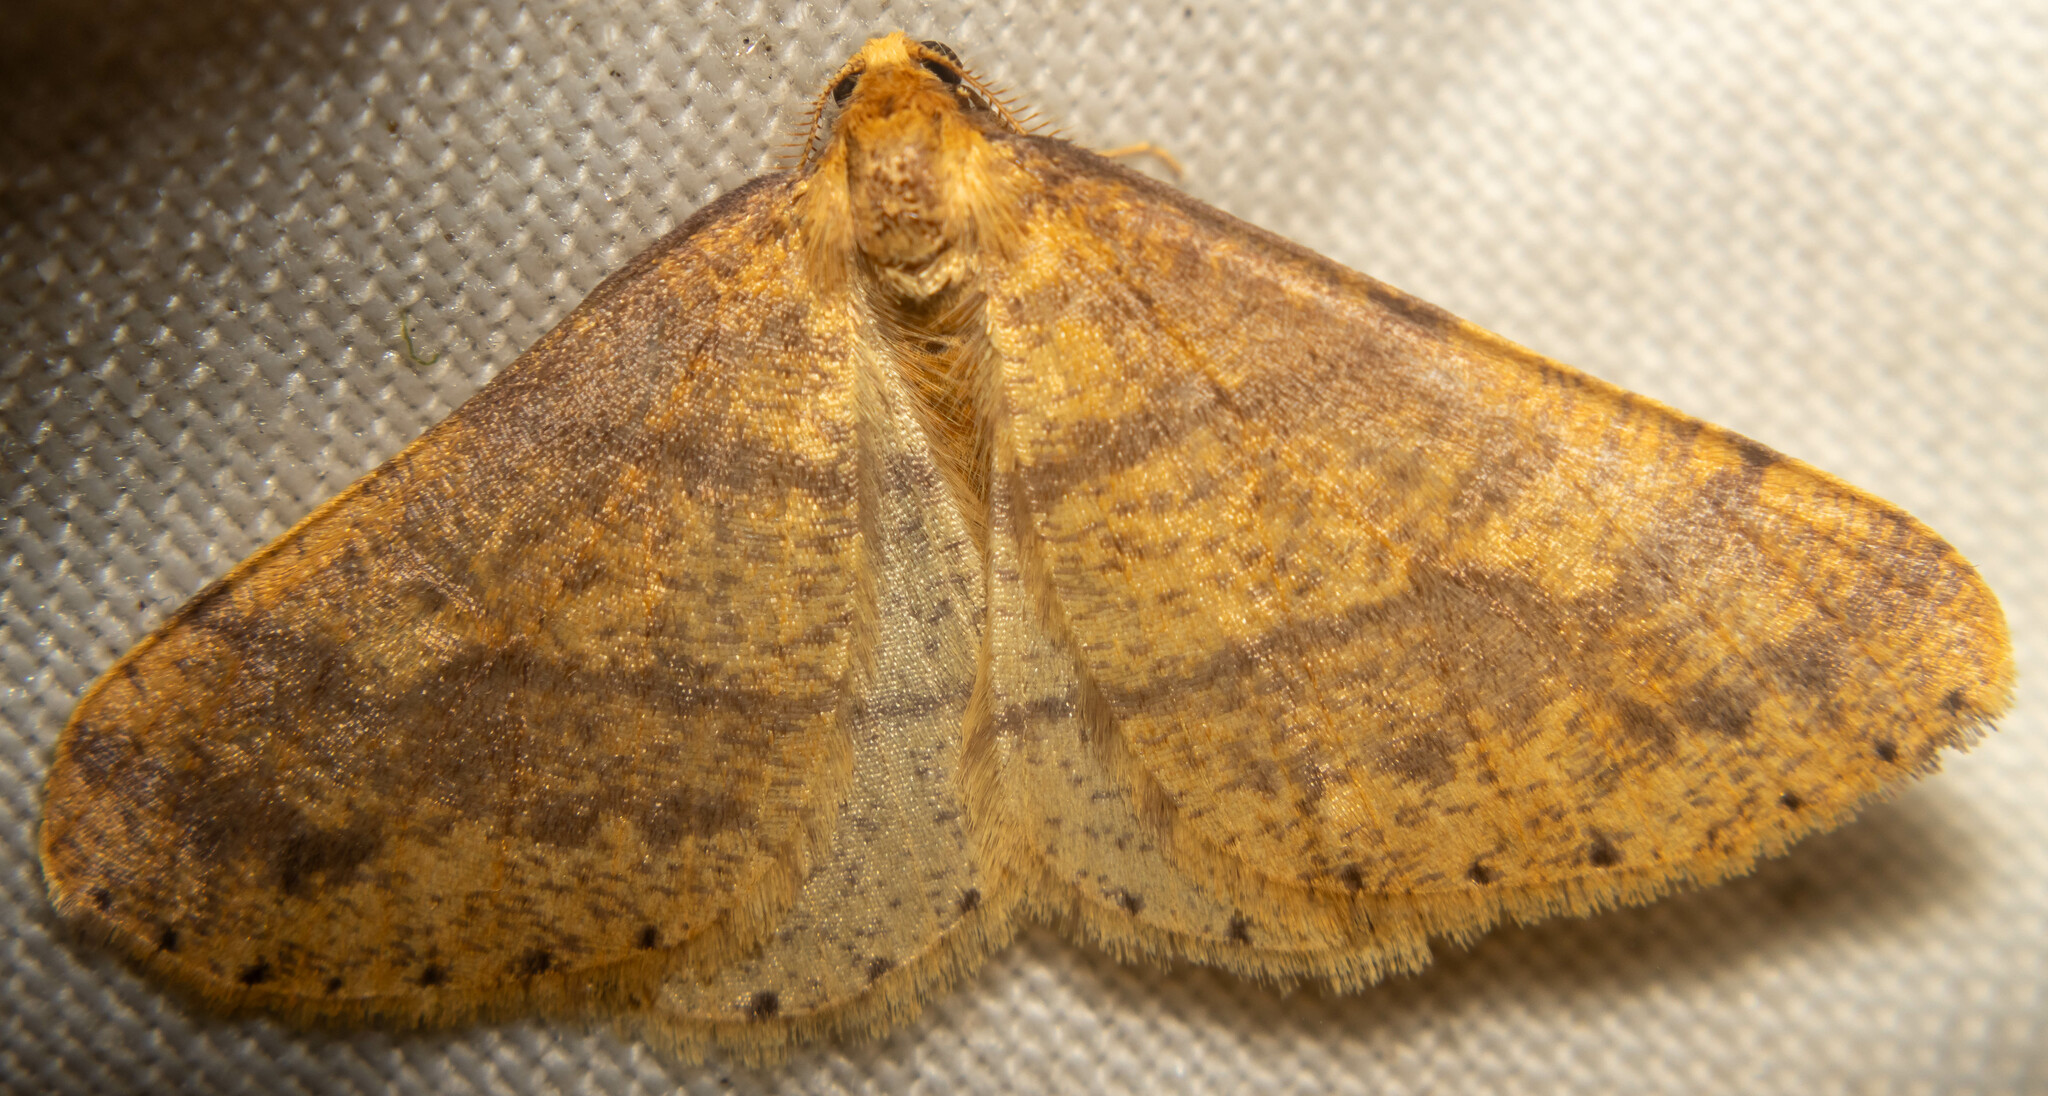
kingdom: Animalia
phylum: Arthropoda
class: Insecta
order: Lepidoptera
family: Geometridae
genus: Agriopis
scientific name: Agriopis aurantiaria
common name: Scarce umber
